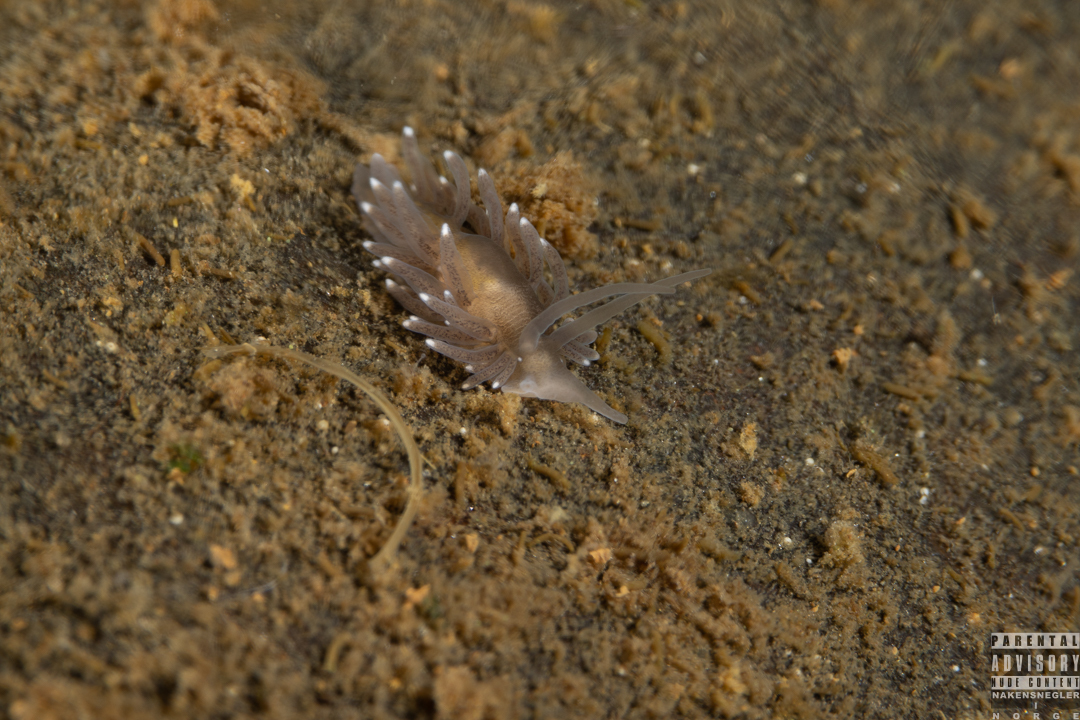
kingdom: Animalia
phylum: Mollusca
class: Gastropoda
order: Nudibranchia
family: Cuthonidae
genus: Bohuslania
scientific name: Bohuslania matsmichaeli
